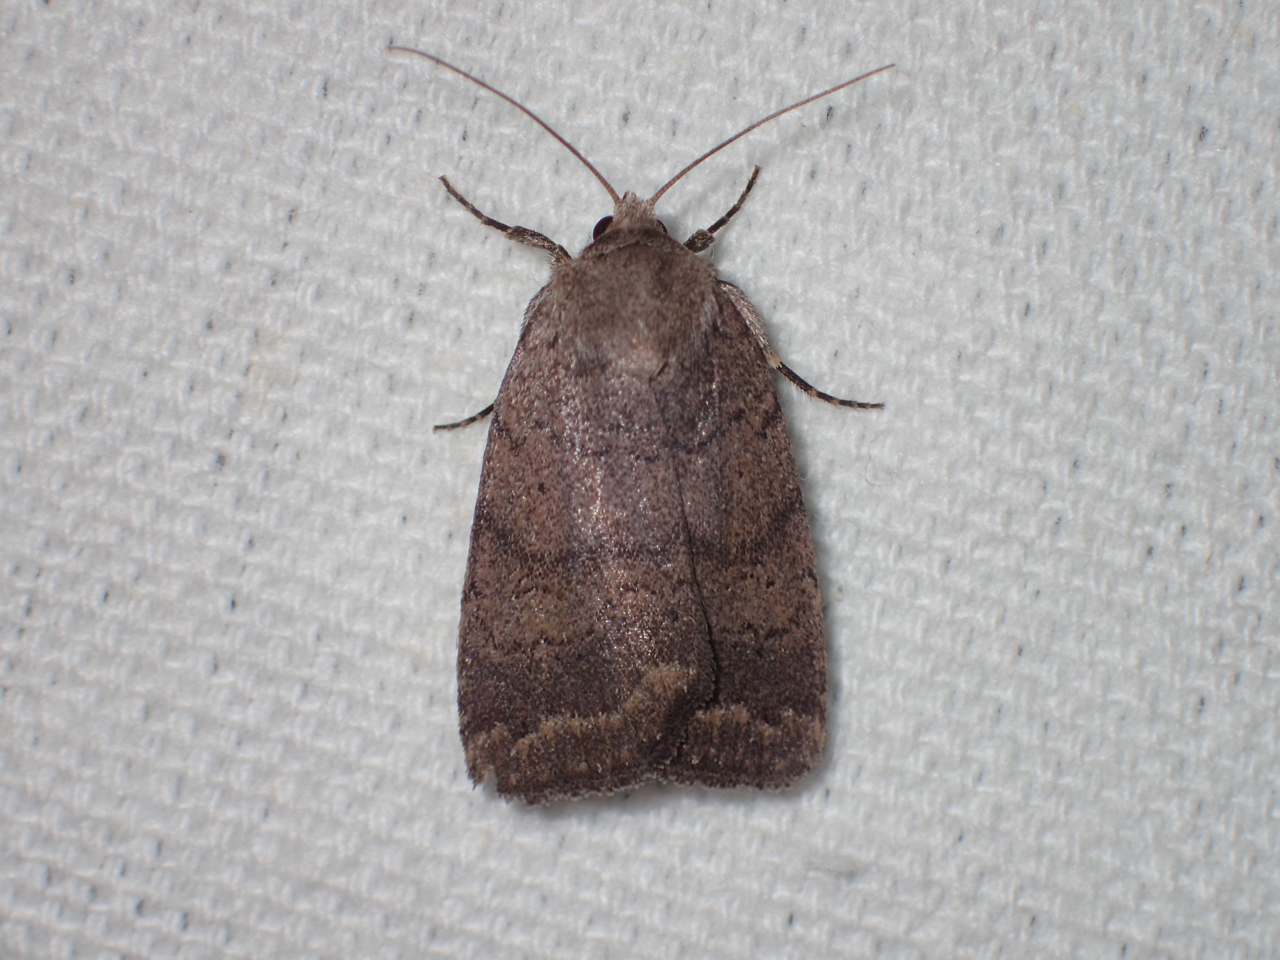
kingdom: Animalia
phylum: Arthropoda
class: Insecta
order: Lepidoptera
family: Noctuidae
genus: Athetis
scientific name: Athetis tarda
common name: Slowpoke moth
